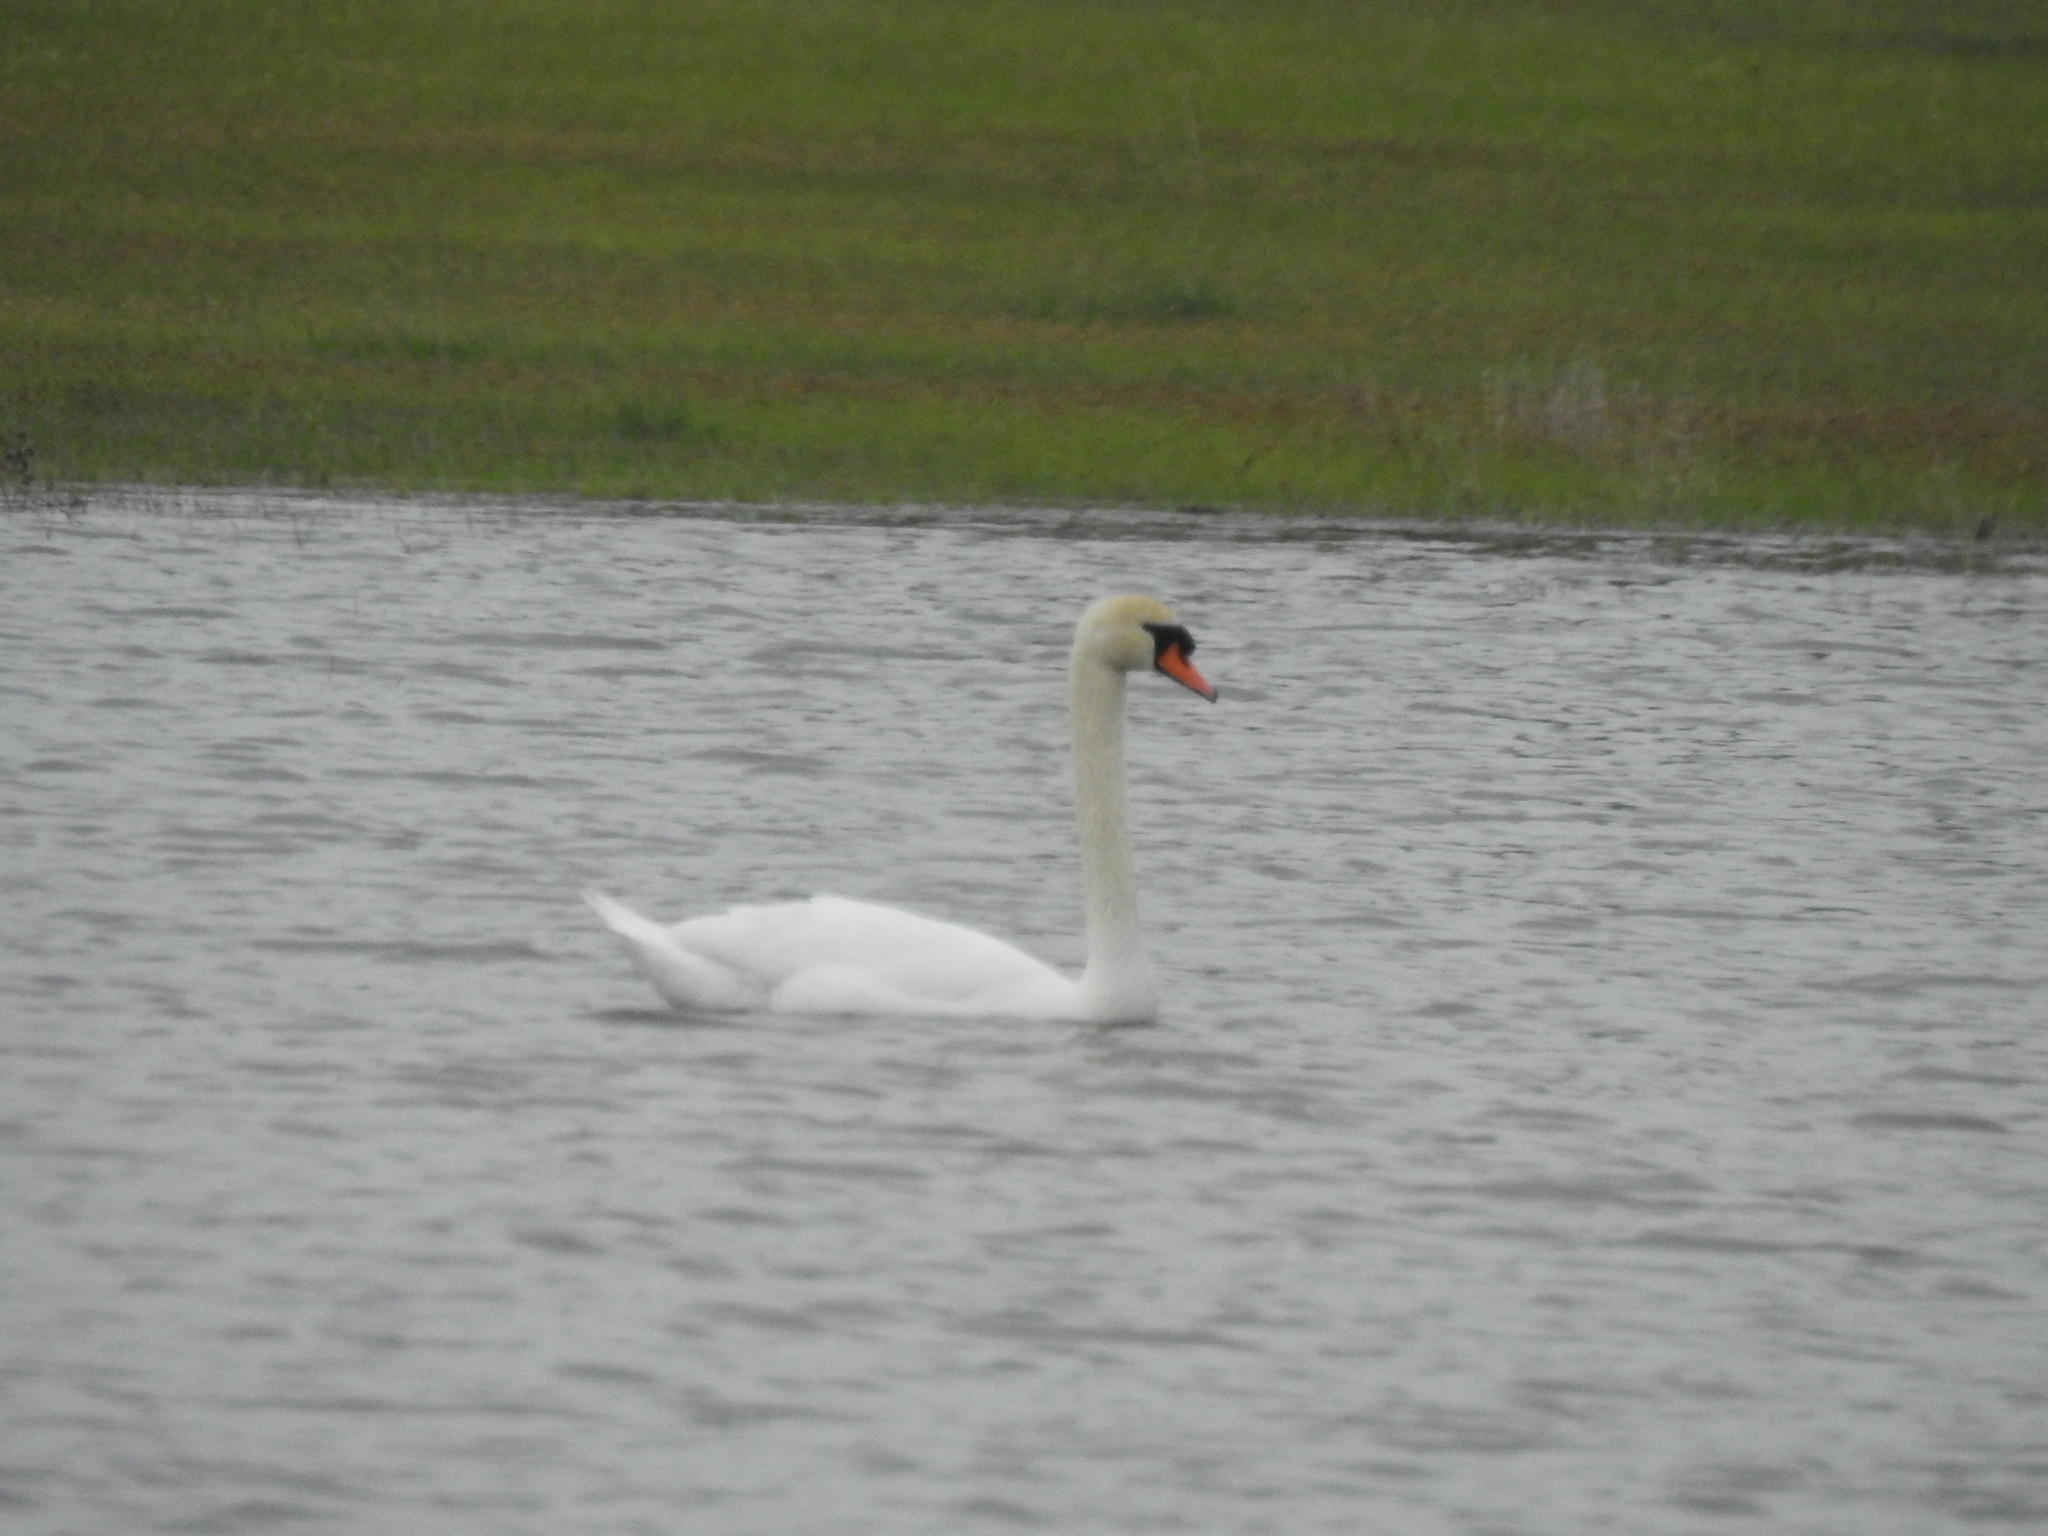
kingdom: Animalia
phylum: Chordata
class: Aves
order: Anseriformes
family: Anatidae
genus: Cygnus
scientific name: Cygnus olor
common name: Mute swan
